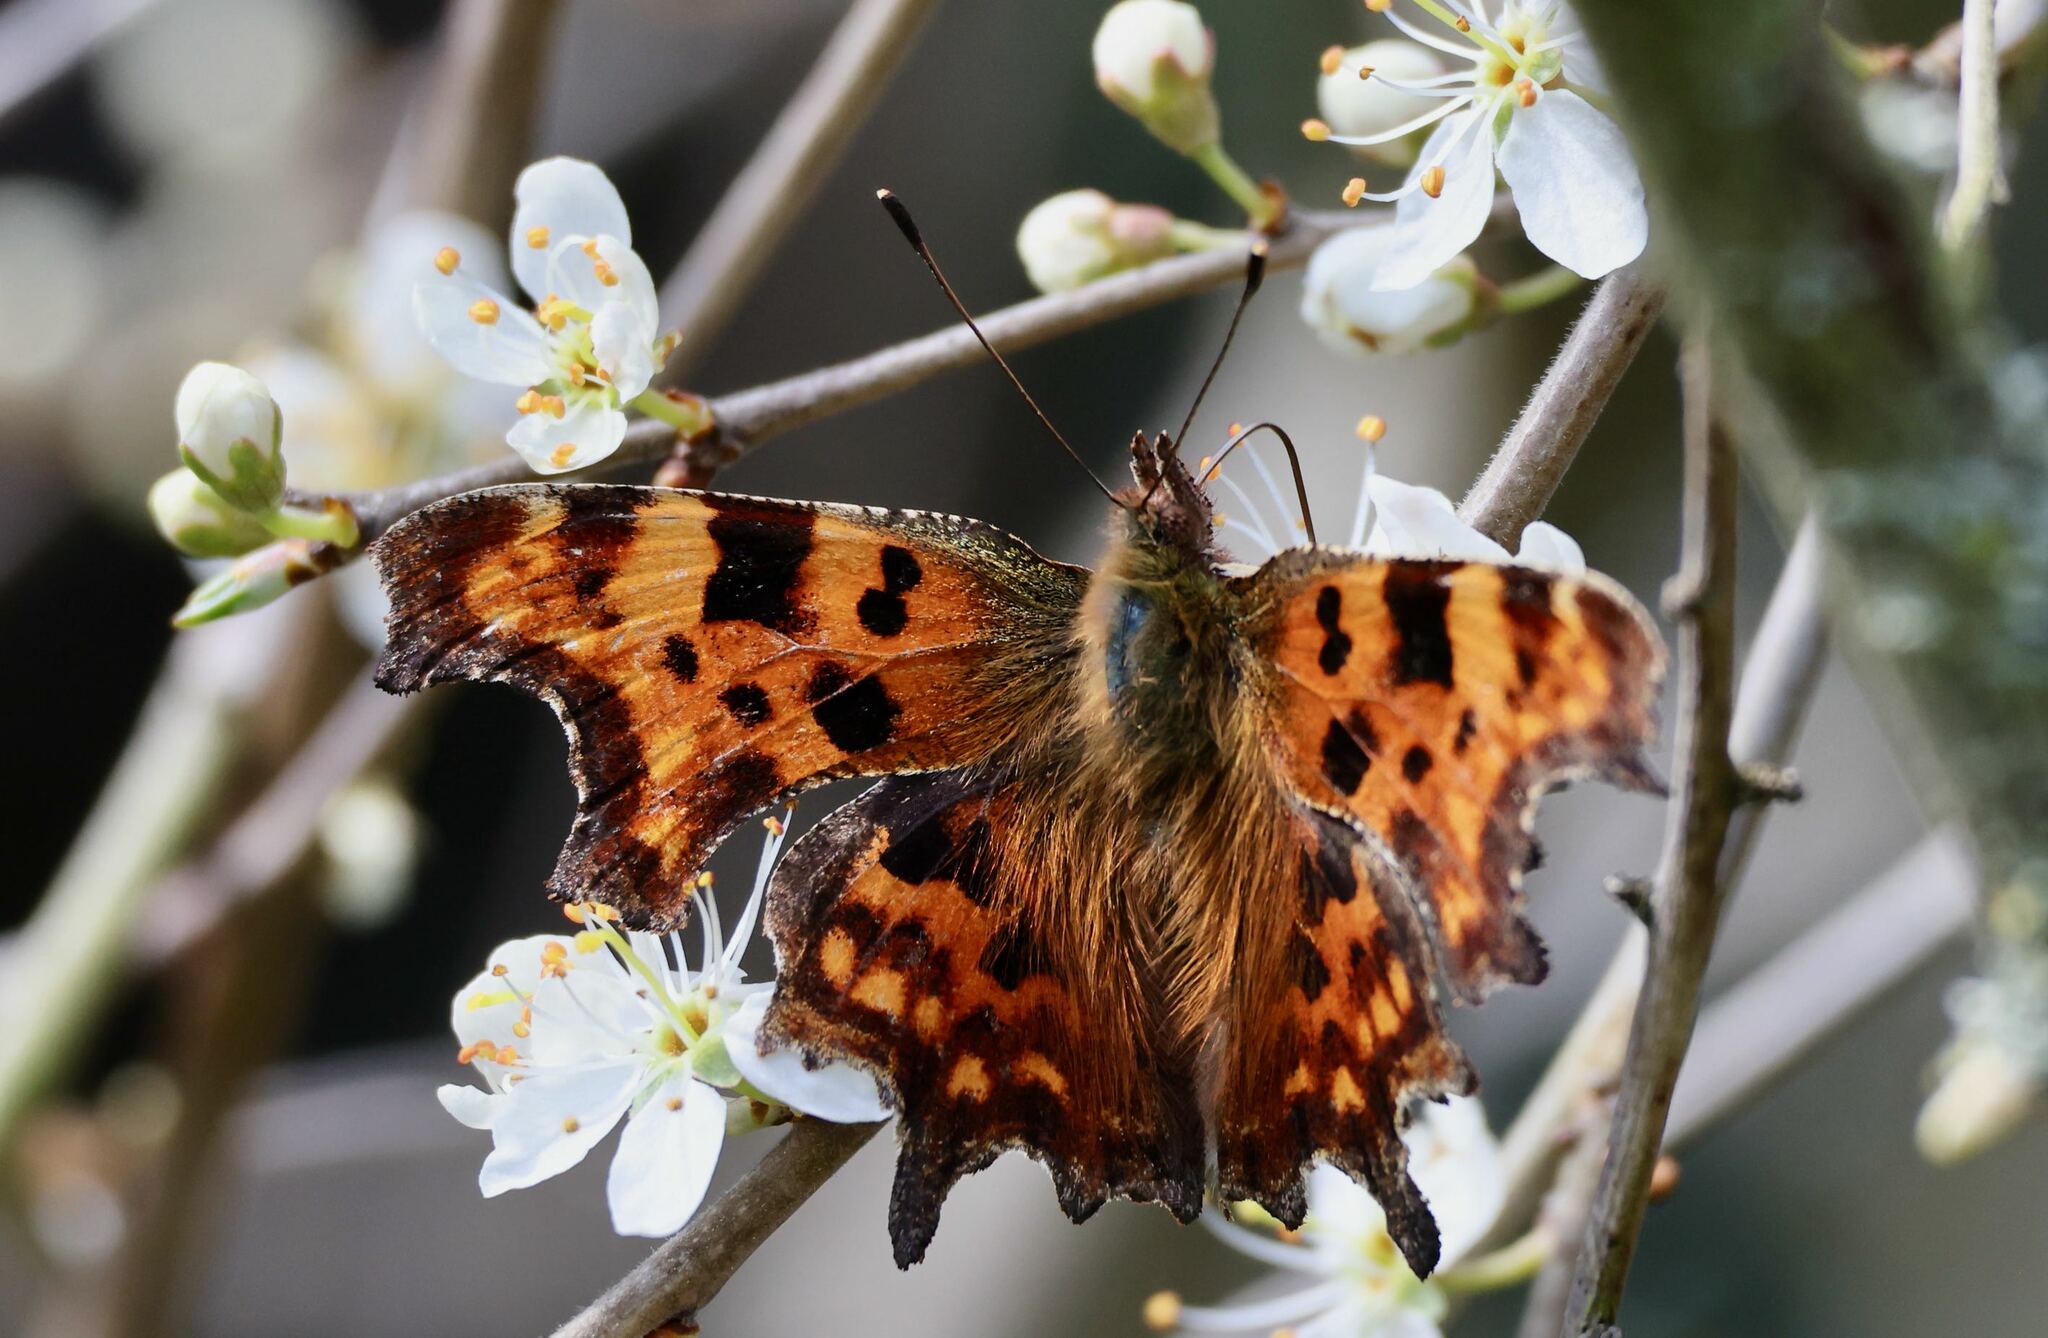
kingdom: Animalia
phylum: Arthropoda
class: Insecta
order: Lepidoptera
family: Nymphalidae
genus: Polygonia
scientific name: Polygonia c-album
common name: Comma
